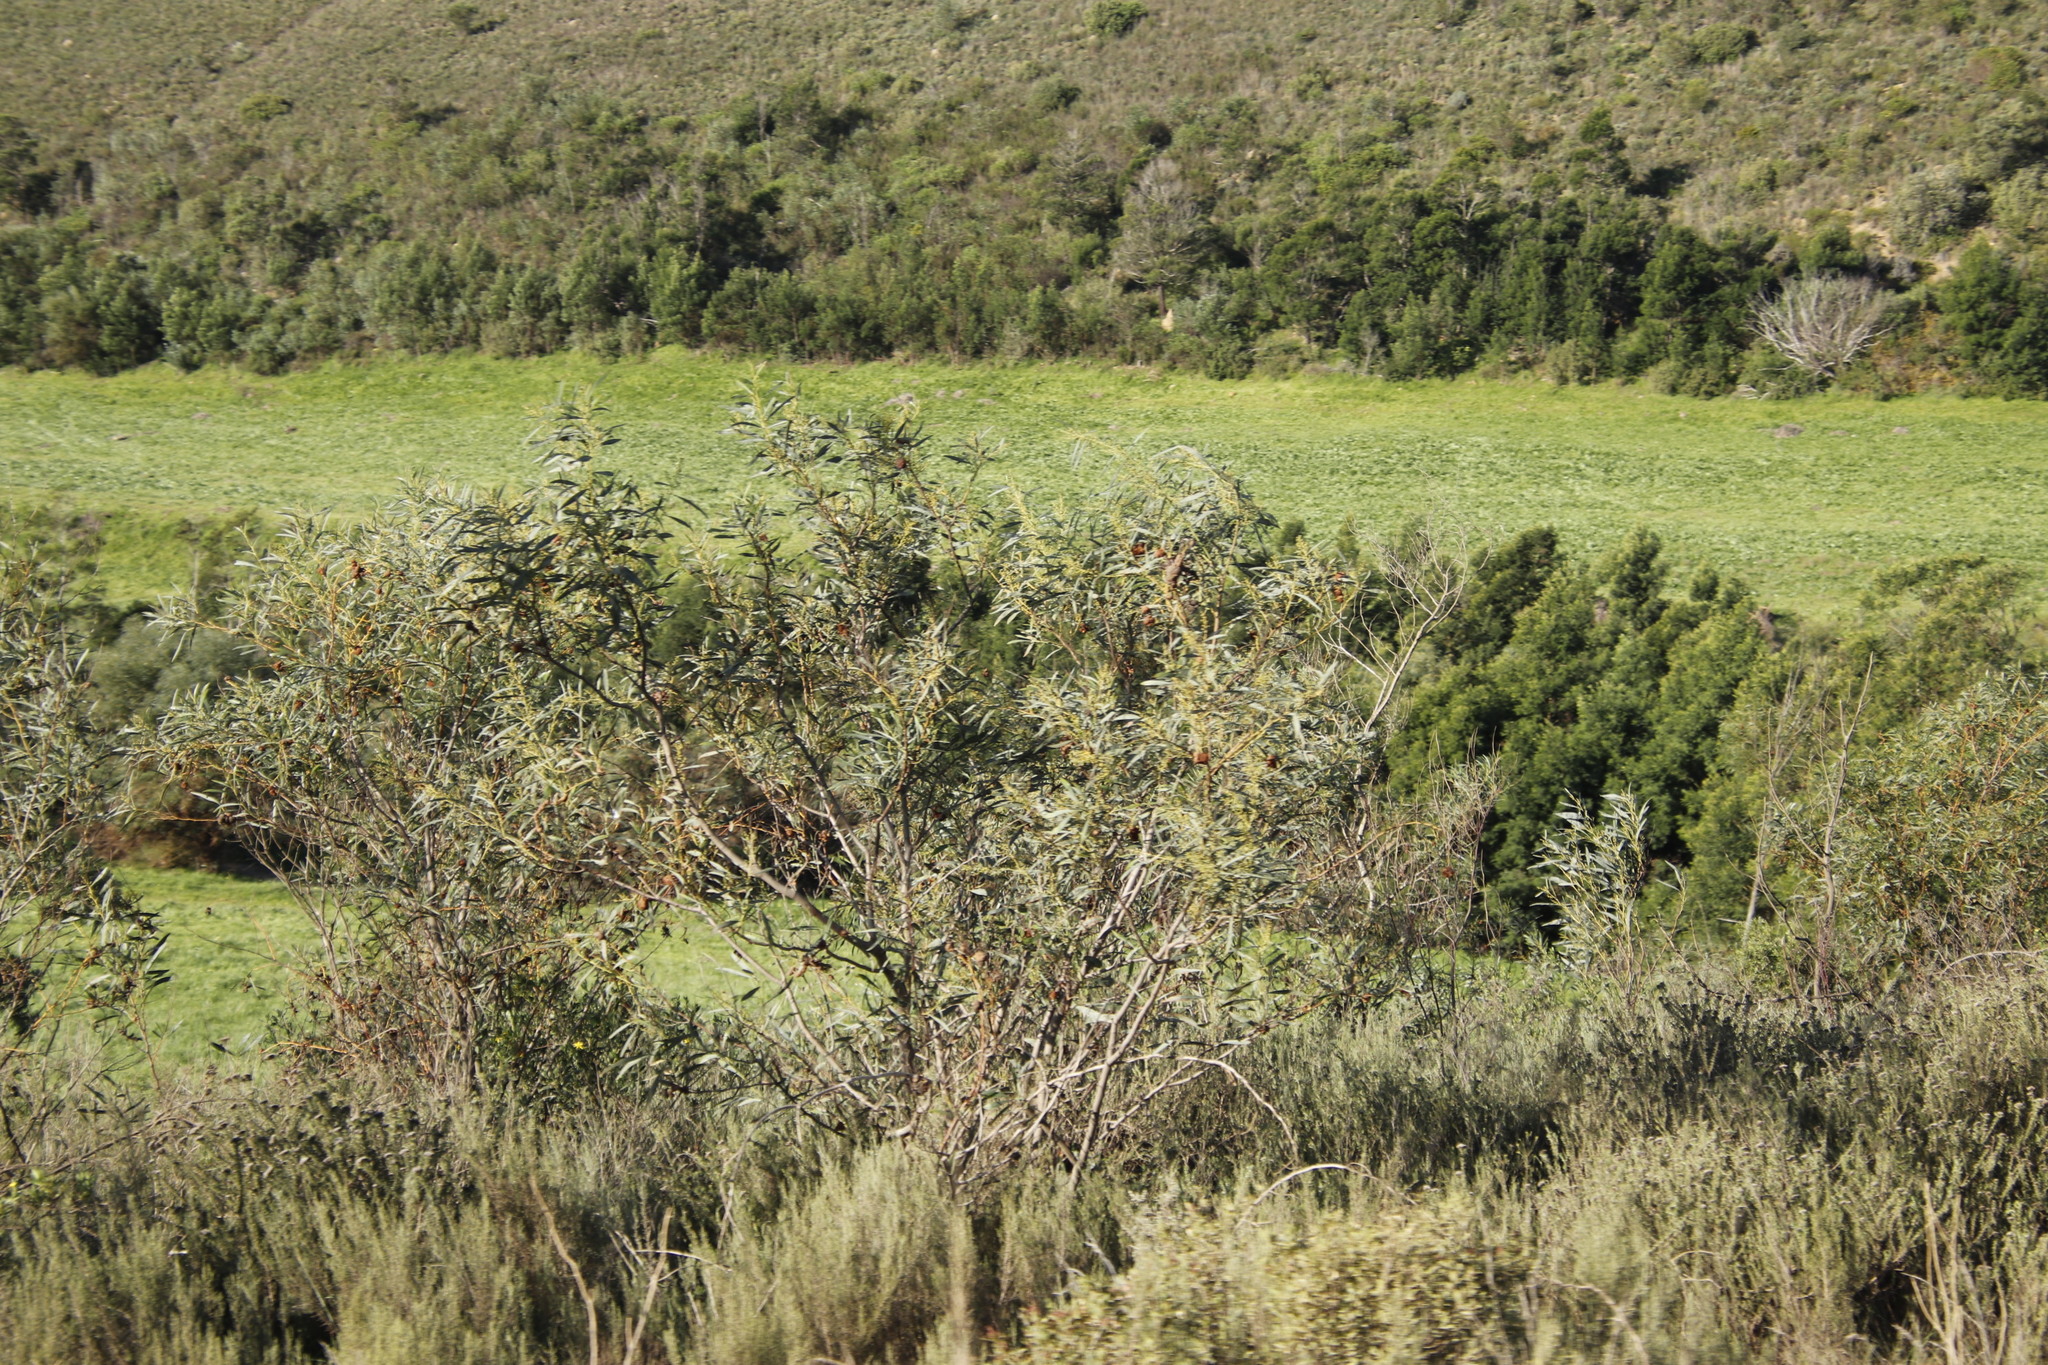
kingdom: Plantae
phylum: Tracheophyta
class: Magnoliopsida
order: Fabales
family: Fabaceae
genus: Acacia
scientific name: Acacia saligna
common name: Orange wattle
